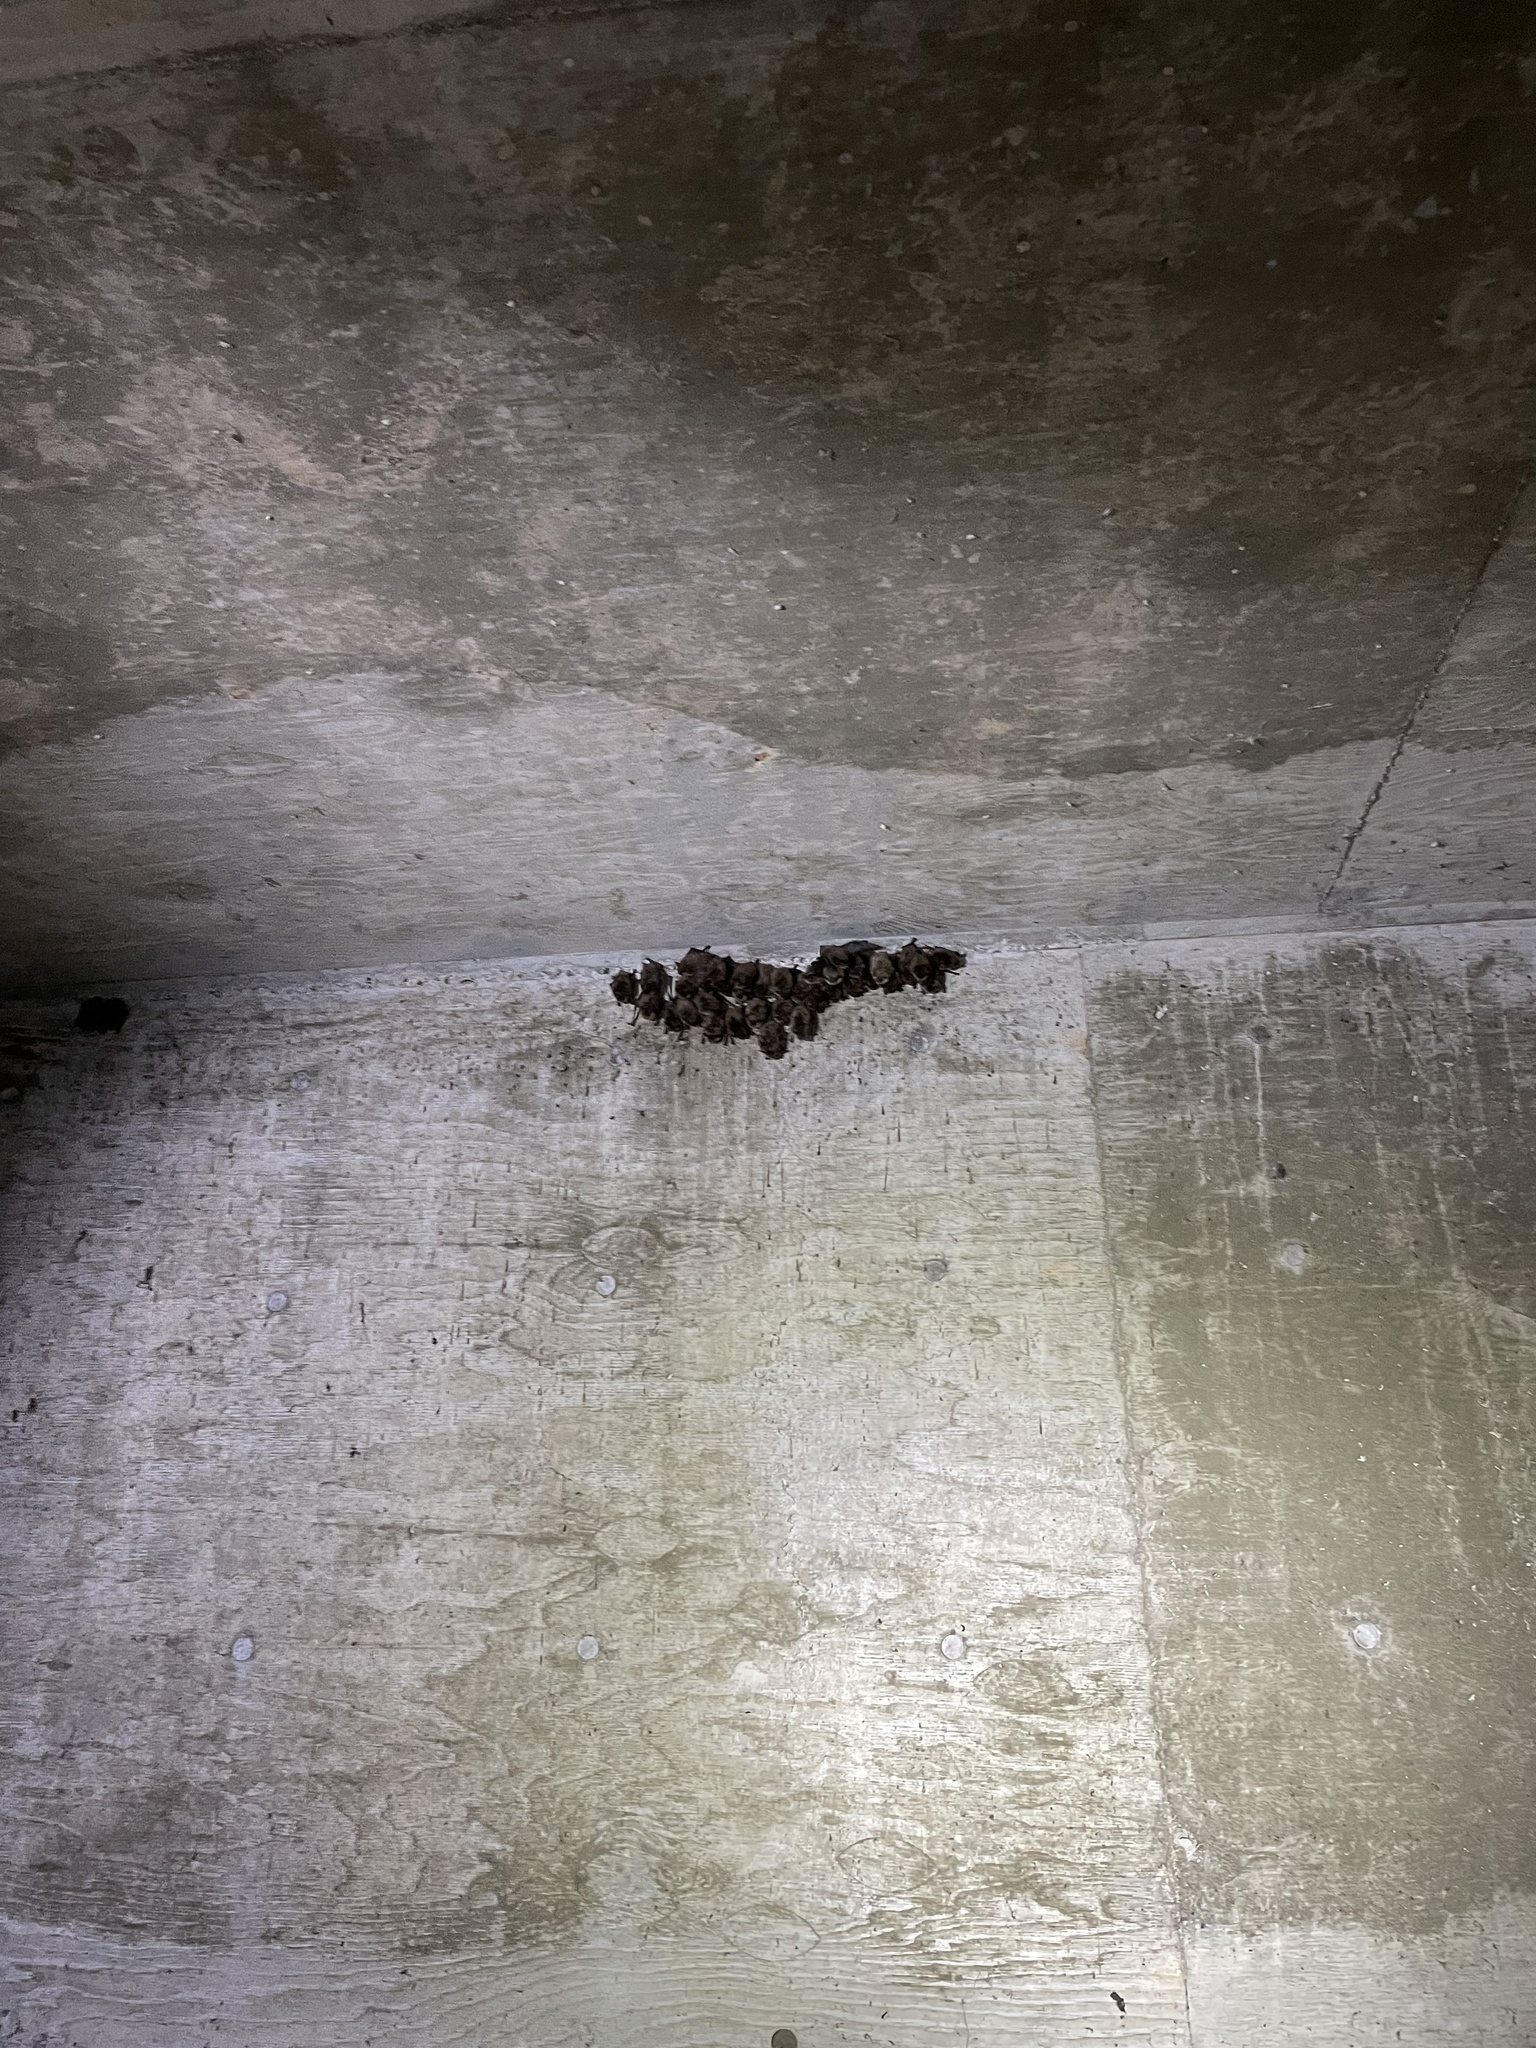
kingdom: Animalia
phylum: Chordata
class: Mammalia
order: Chiroptera
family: Vespertilionidae
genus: Myotis
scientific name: Myotis yumanensis
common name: Yuma myotis
